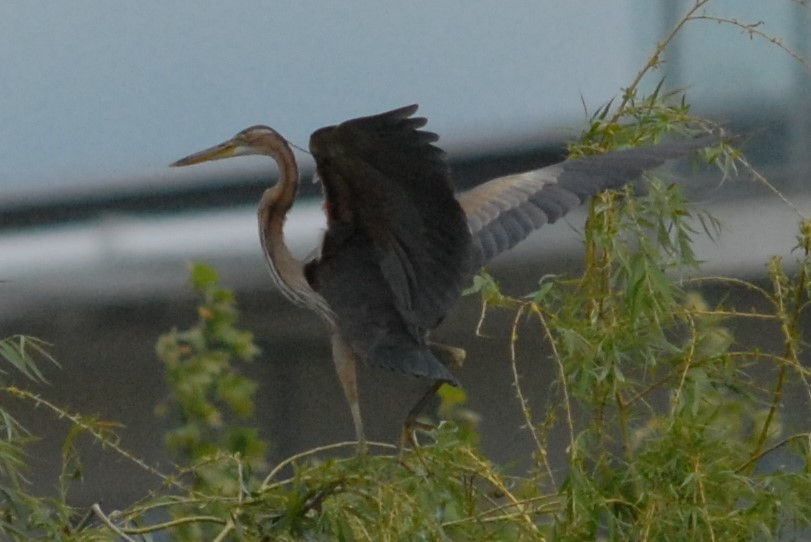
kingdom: Animalia
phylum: Chordata
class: Aves
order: Pelecaniformes
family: Ardeidae
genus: Ardea
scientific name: Ardea purpurea
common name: Purple heron
